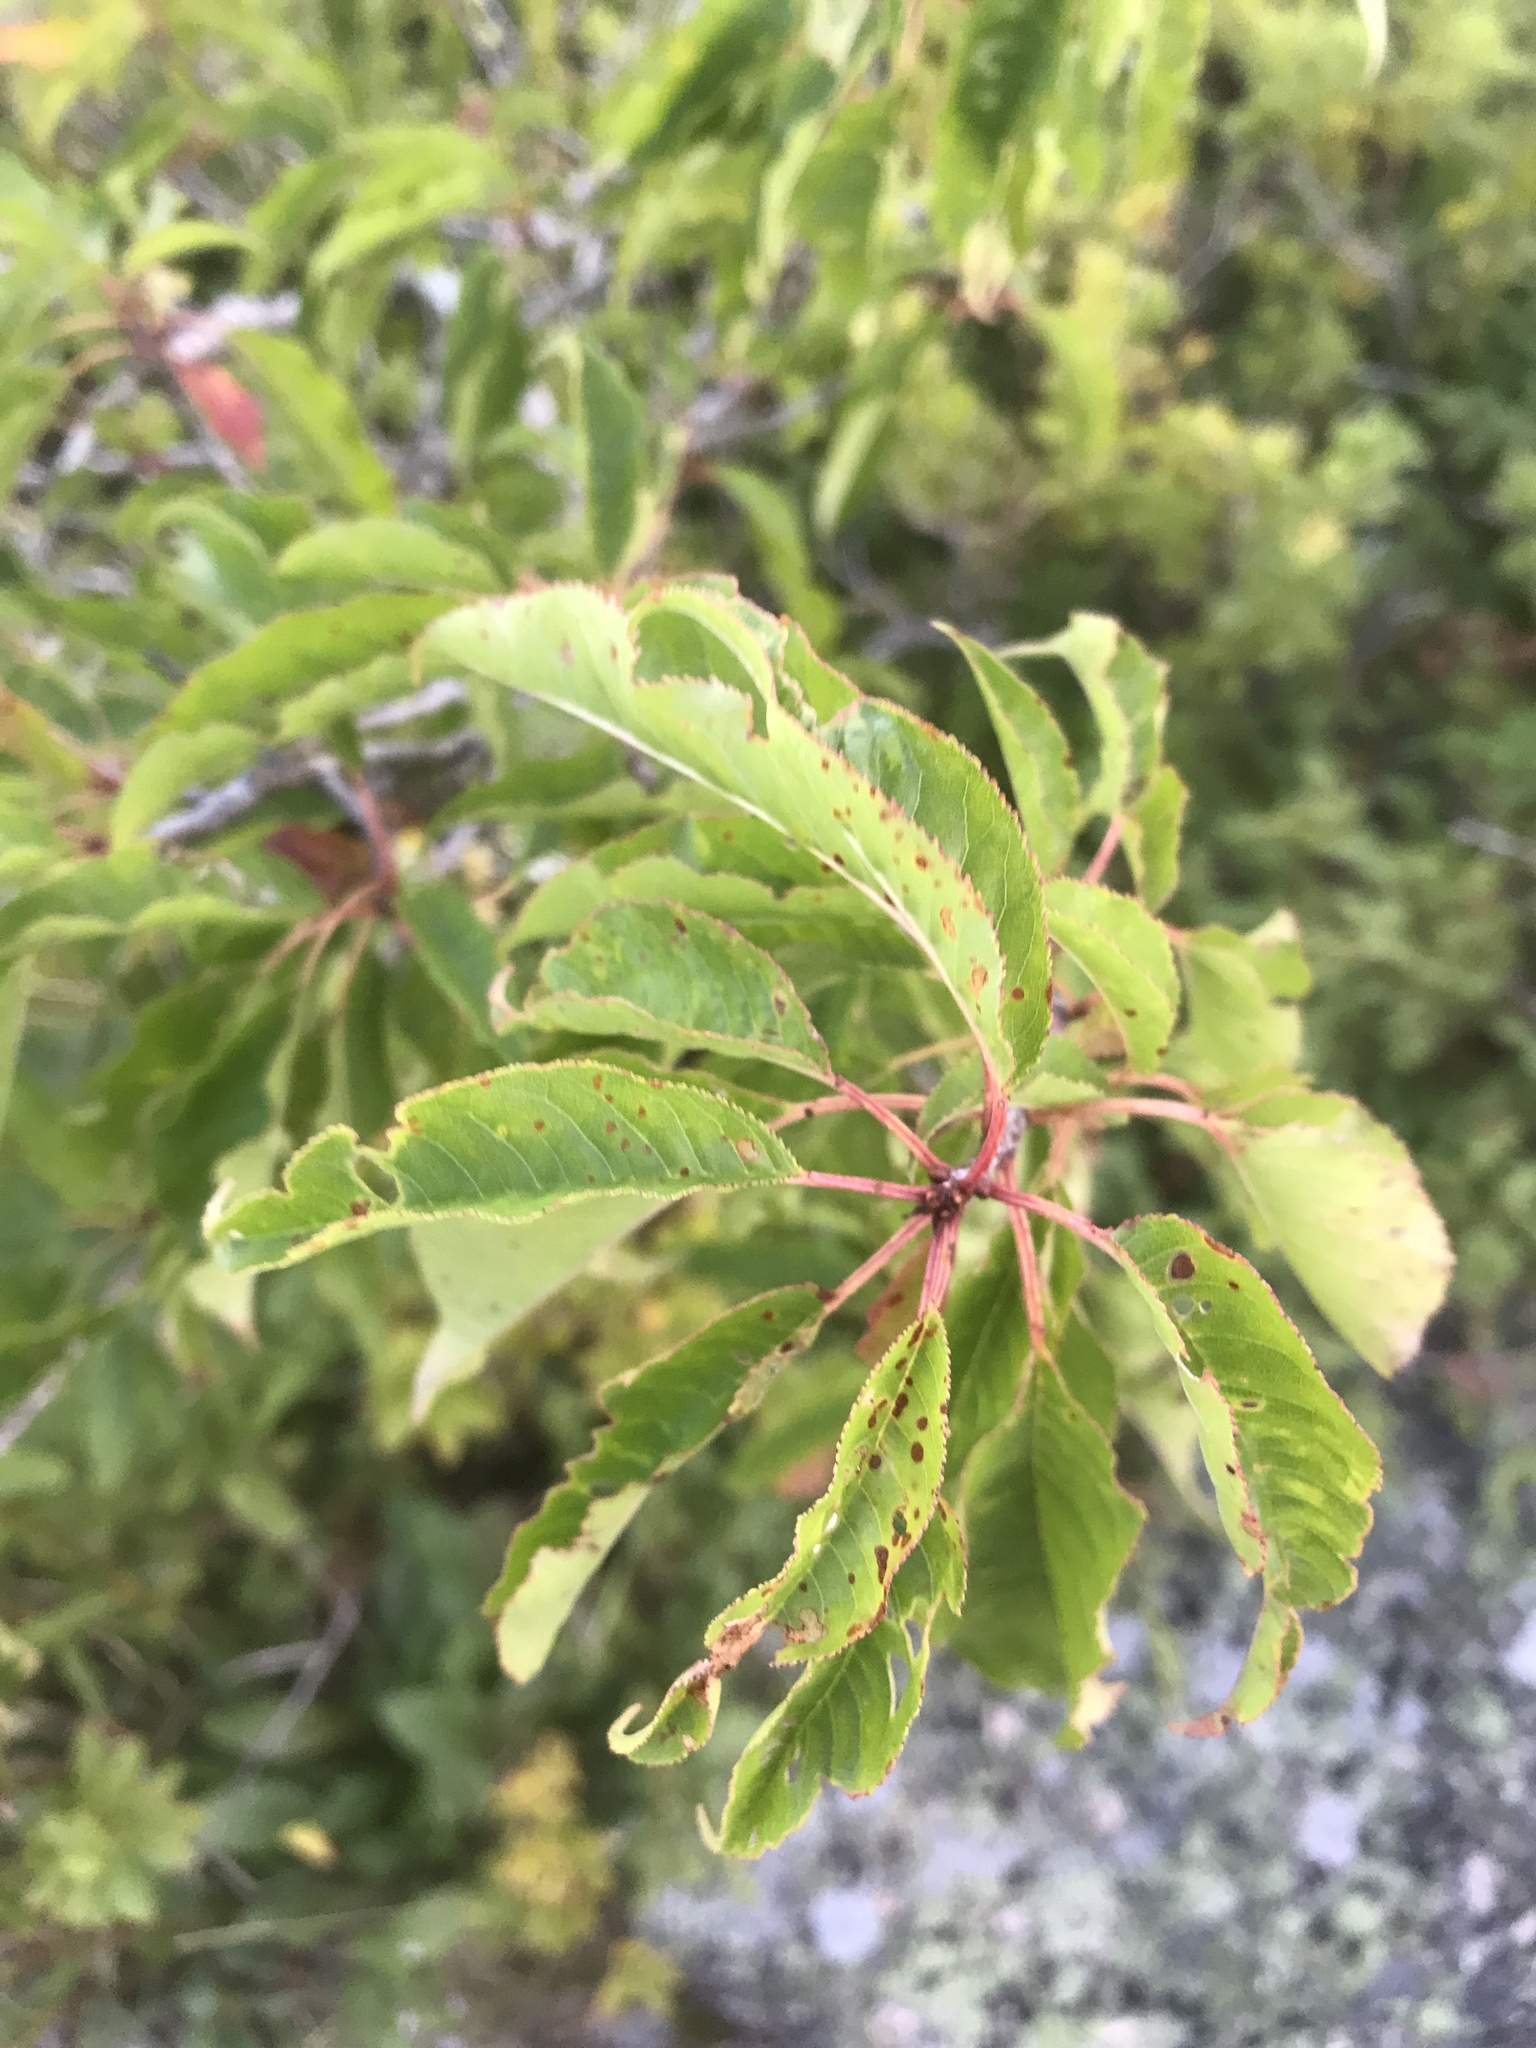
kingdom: Plantae
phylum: Tracheophyta
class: Magnoliopsida
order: Rosales
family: Rosaceae
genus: Prunus
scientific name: Prunus pensylvanica
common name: Pin cherry
